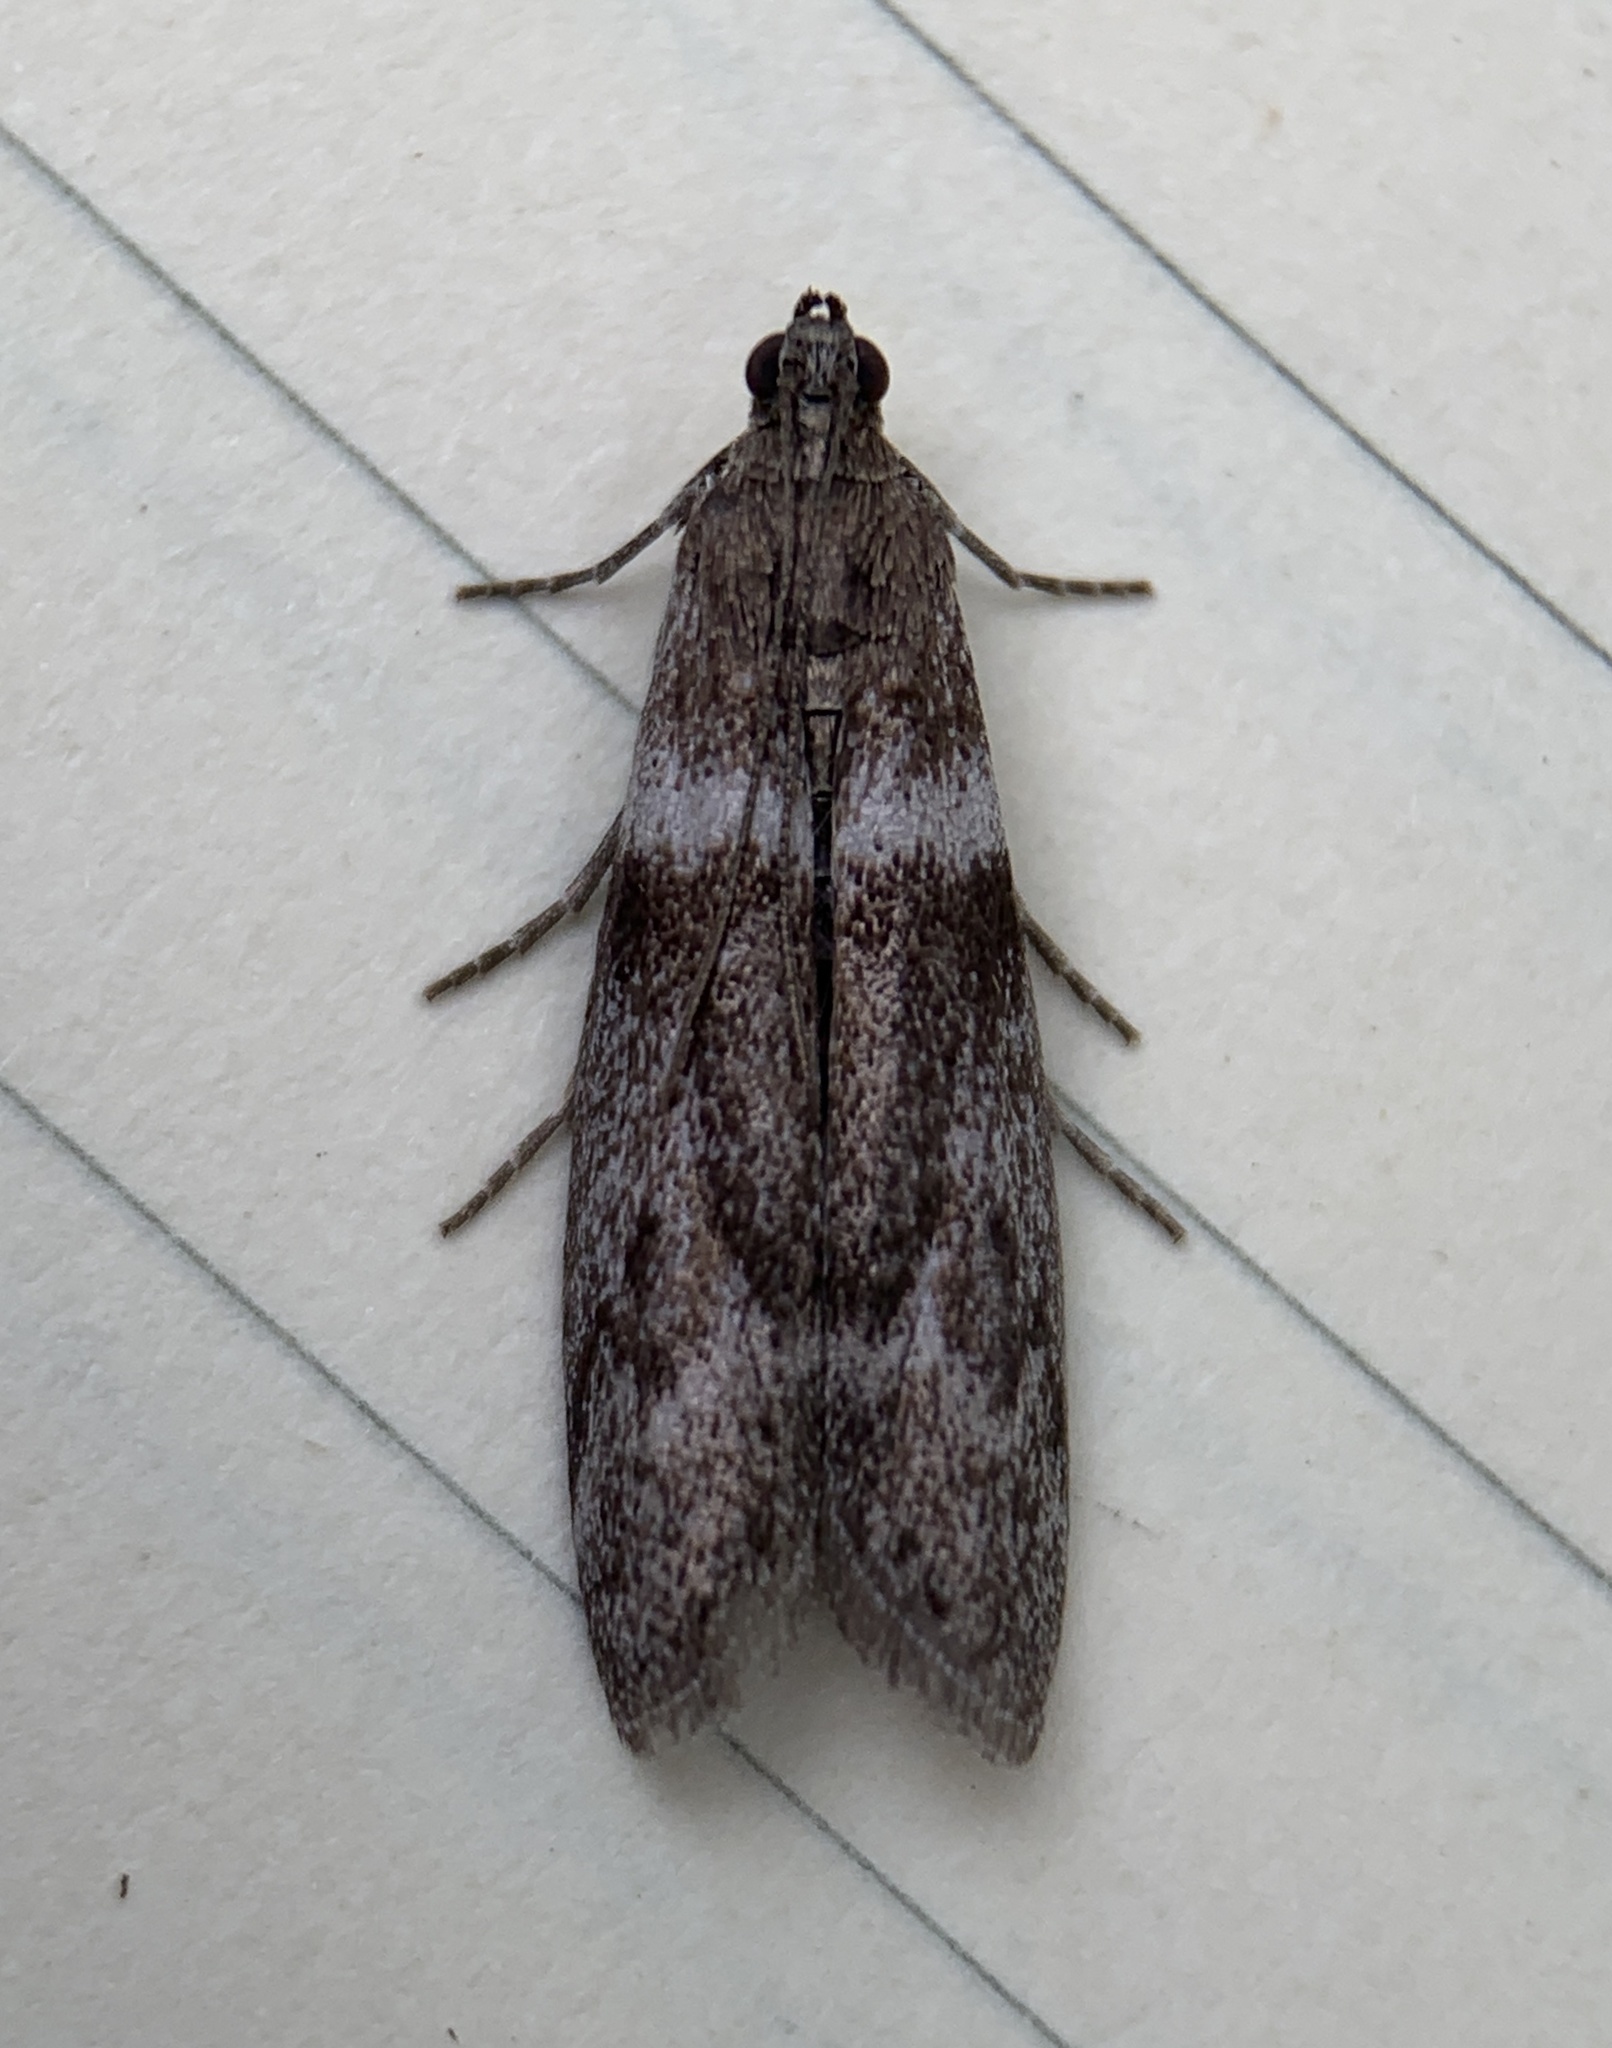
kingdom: Animalia
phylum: Arthropoda
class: Insecta
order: Lepidoptera
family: Pyralidae
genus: Myelopsis
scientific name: Myelopsis subtetricella
